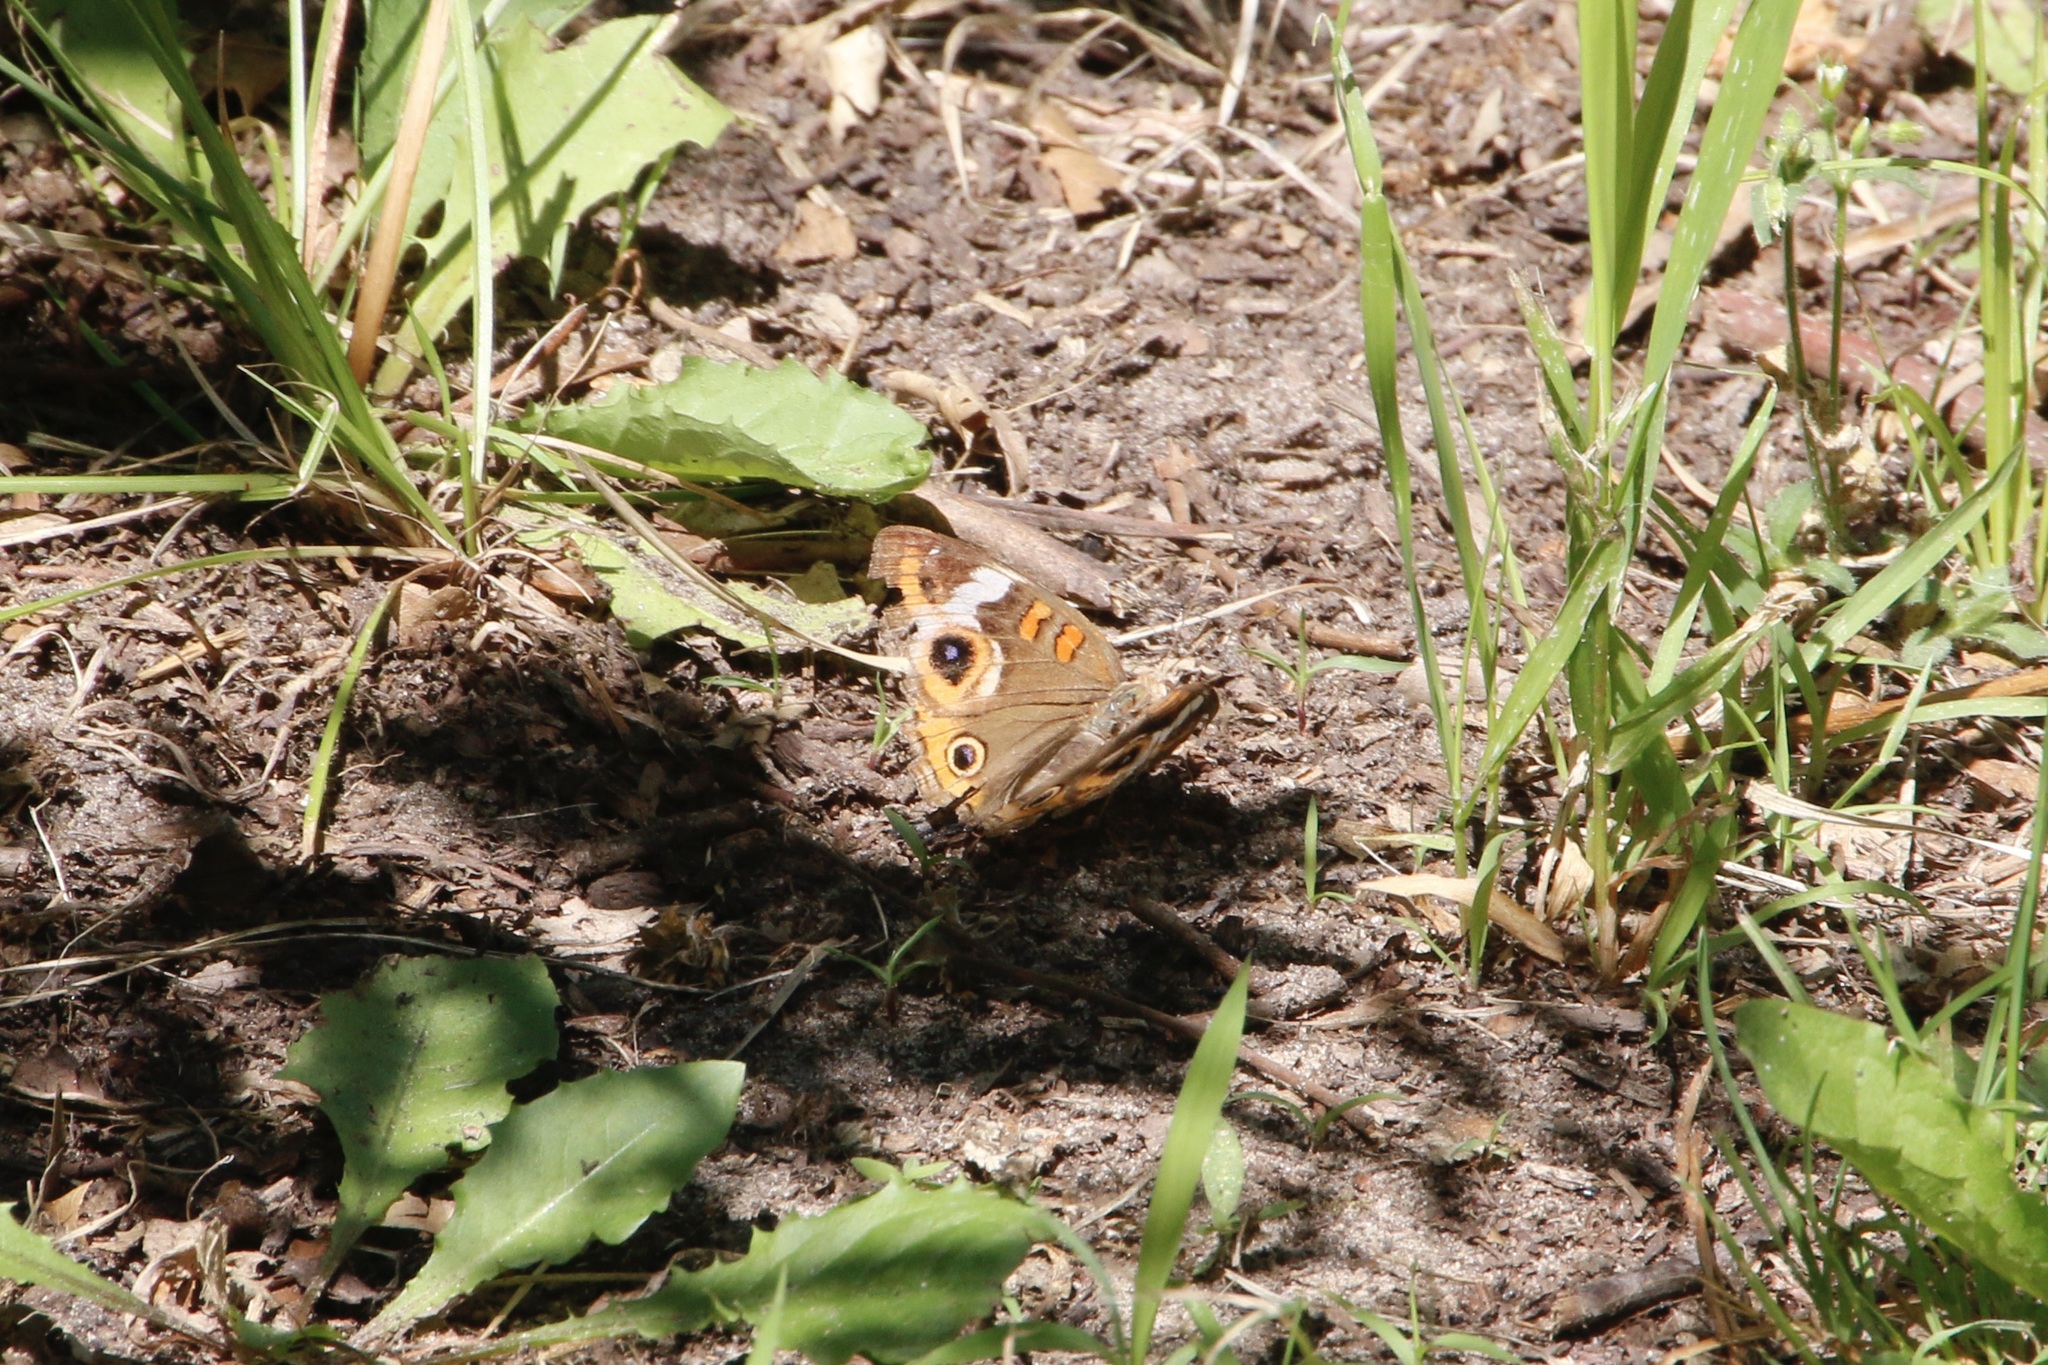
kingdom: Animalia
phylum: Arthropoda
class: Insecta
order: Lepidoptera
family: Nymphalidae
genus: Junonia
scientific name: Junonia coenia
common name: Common buckeye
